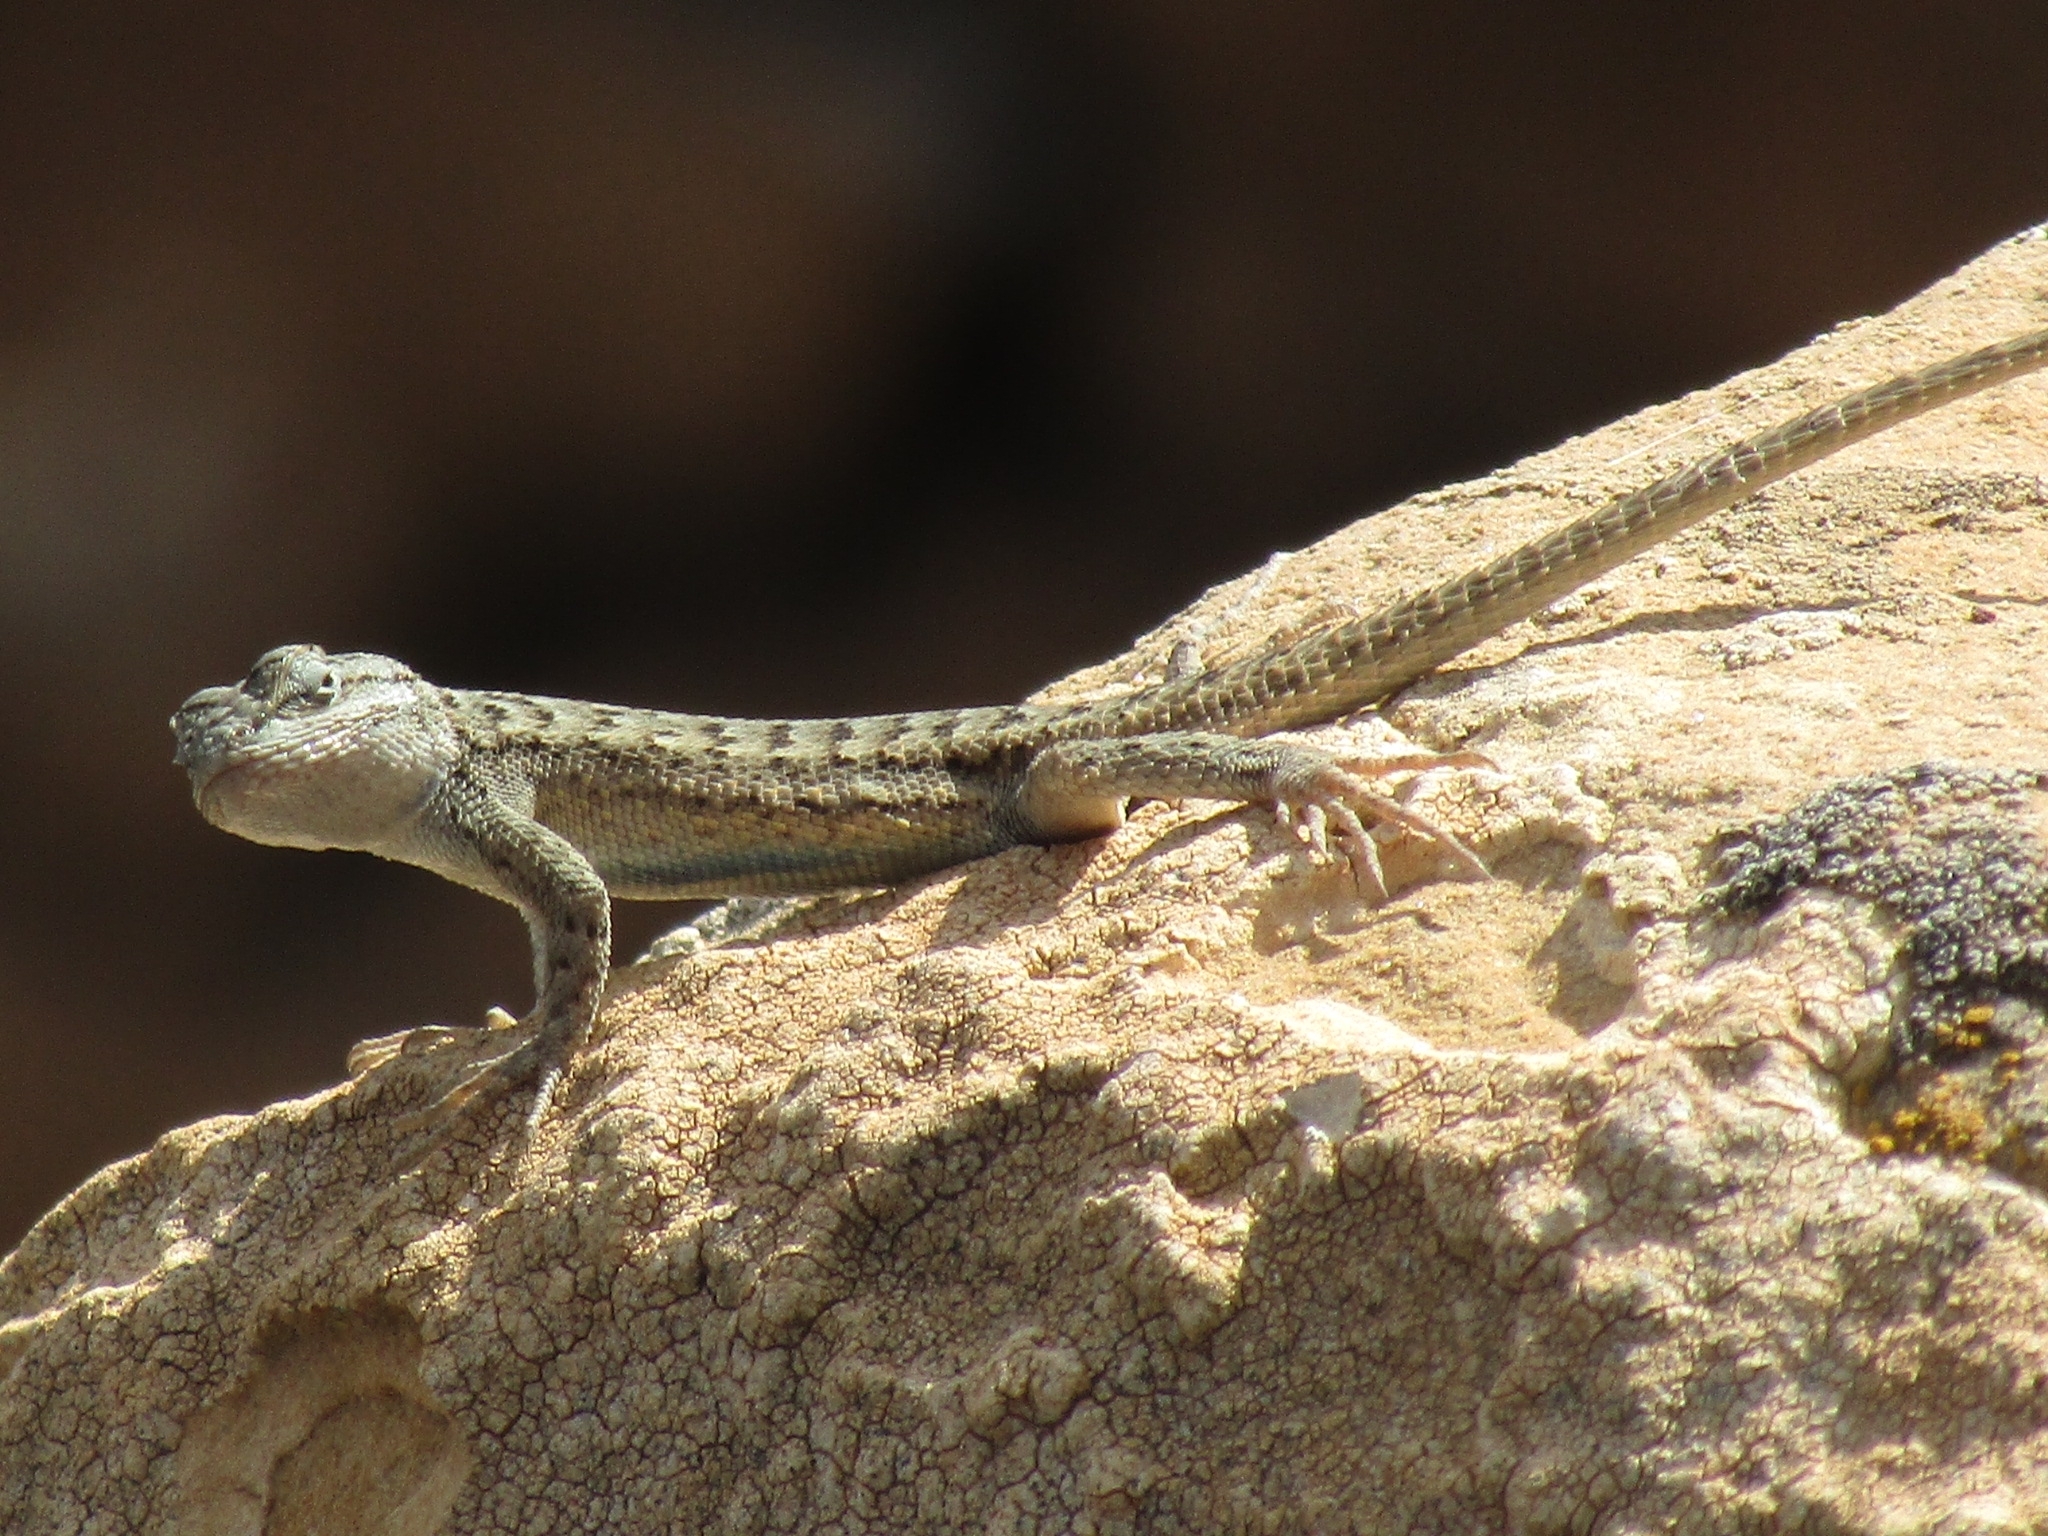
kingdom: Animalia
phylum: Chordata
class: Squamata
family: Phrynosomatidae
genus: Sceloporus
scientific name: Sceloporus tristichus
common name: Plateau fence lizard
